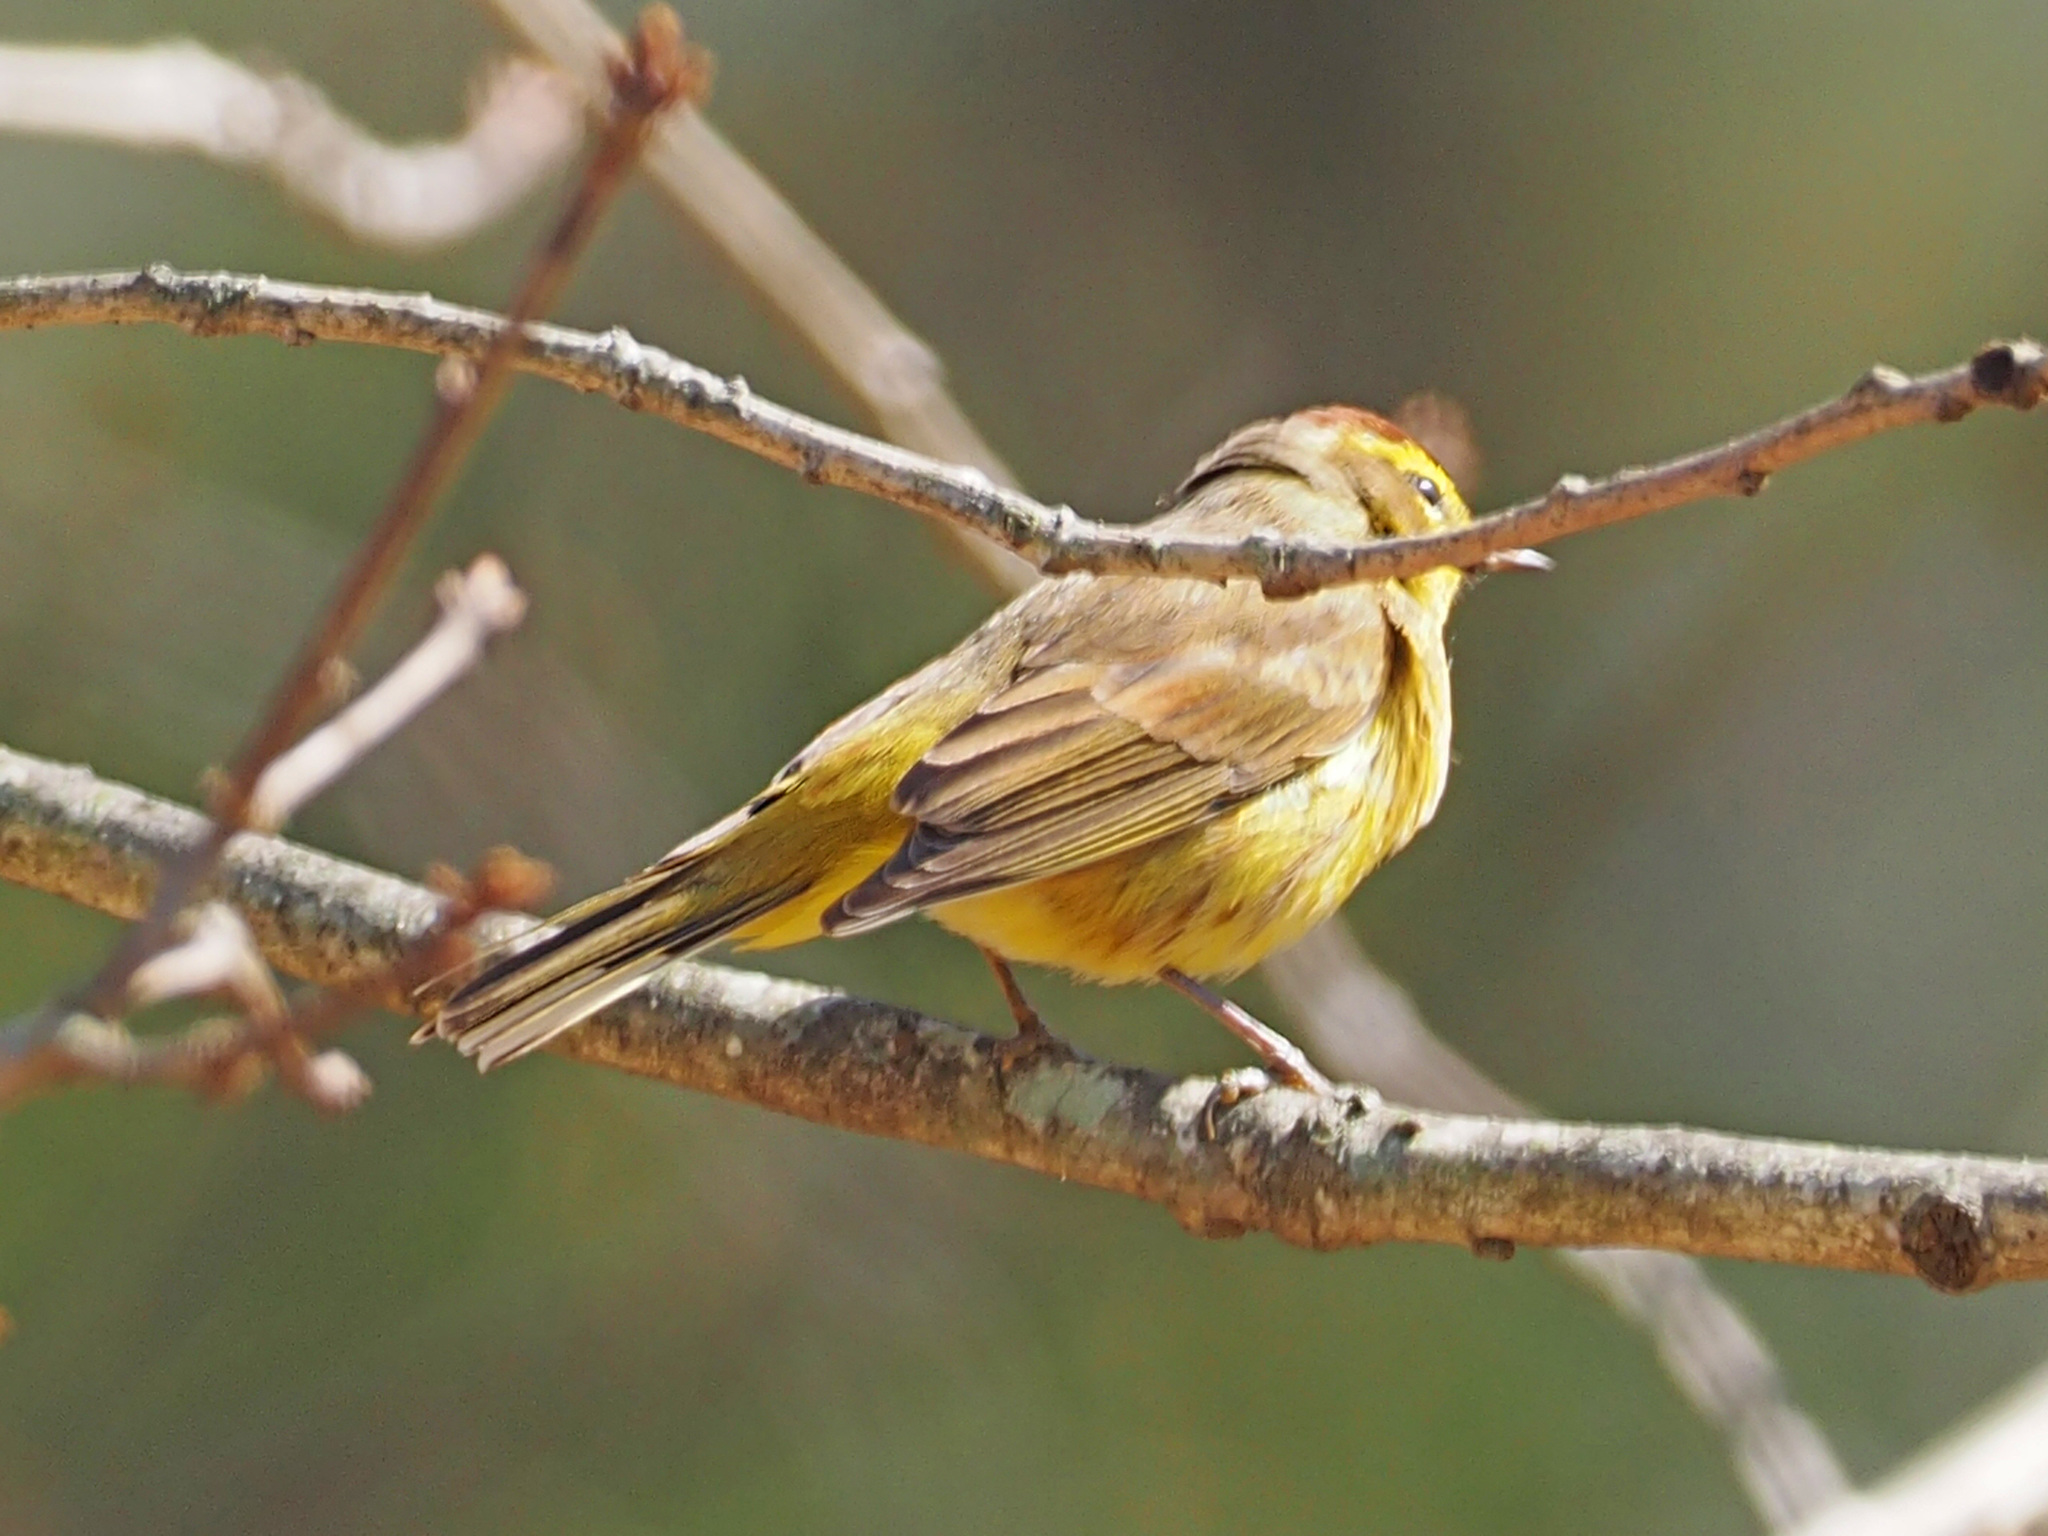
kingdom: Animalia
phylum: Chordata
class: Aves
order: Passeriformes
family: Parulidae
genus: Setophaga
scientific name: Setophaga palmarum
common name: Palm warbler
